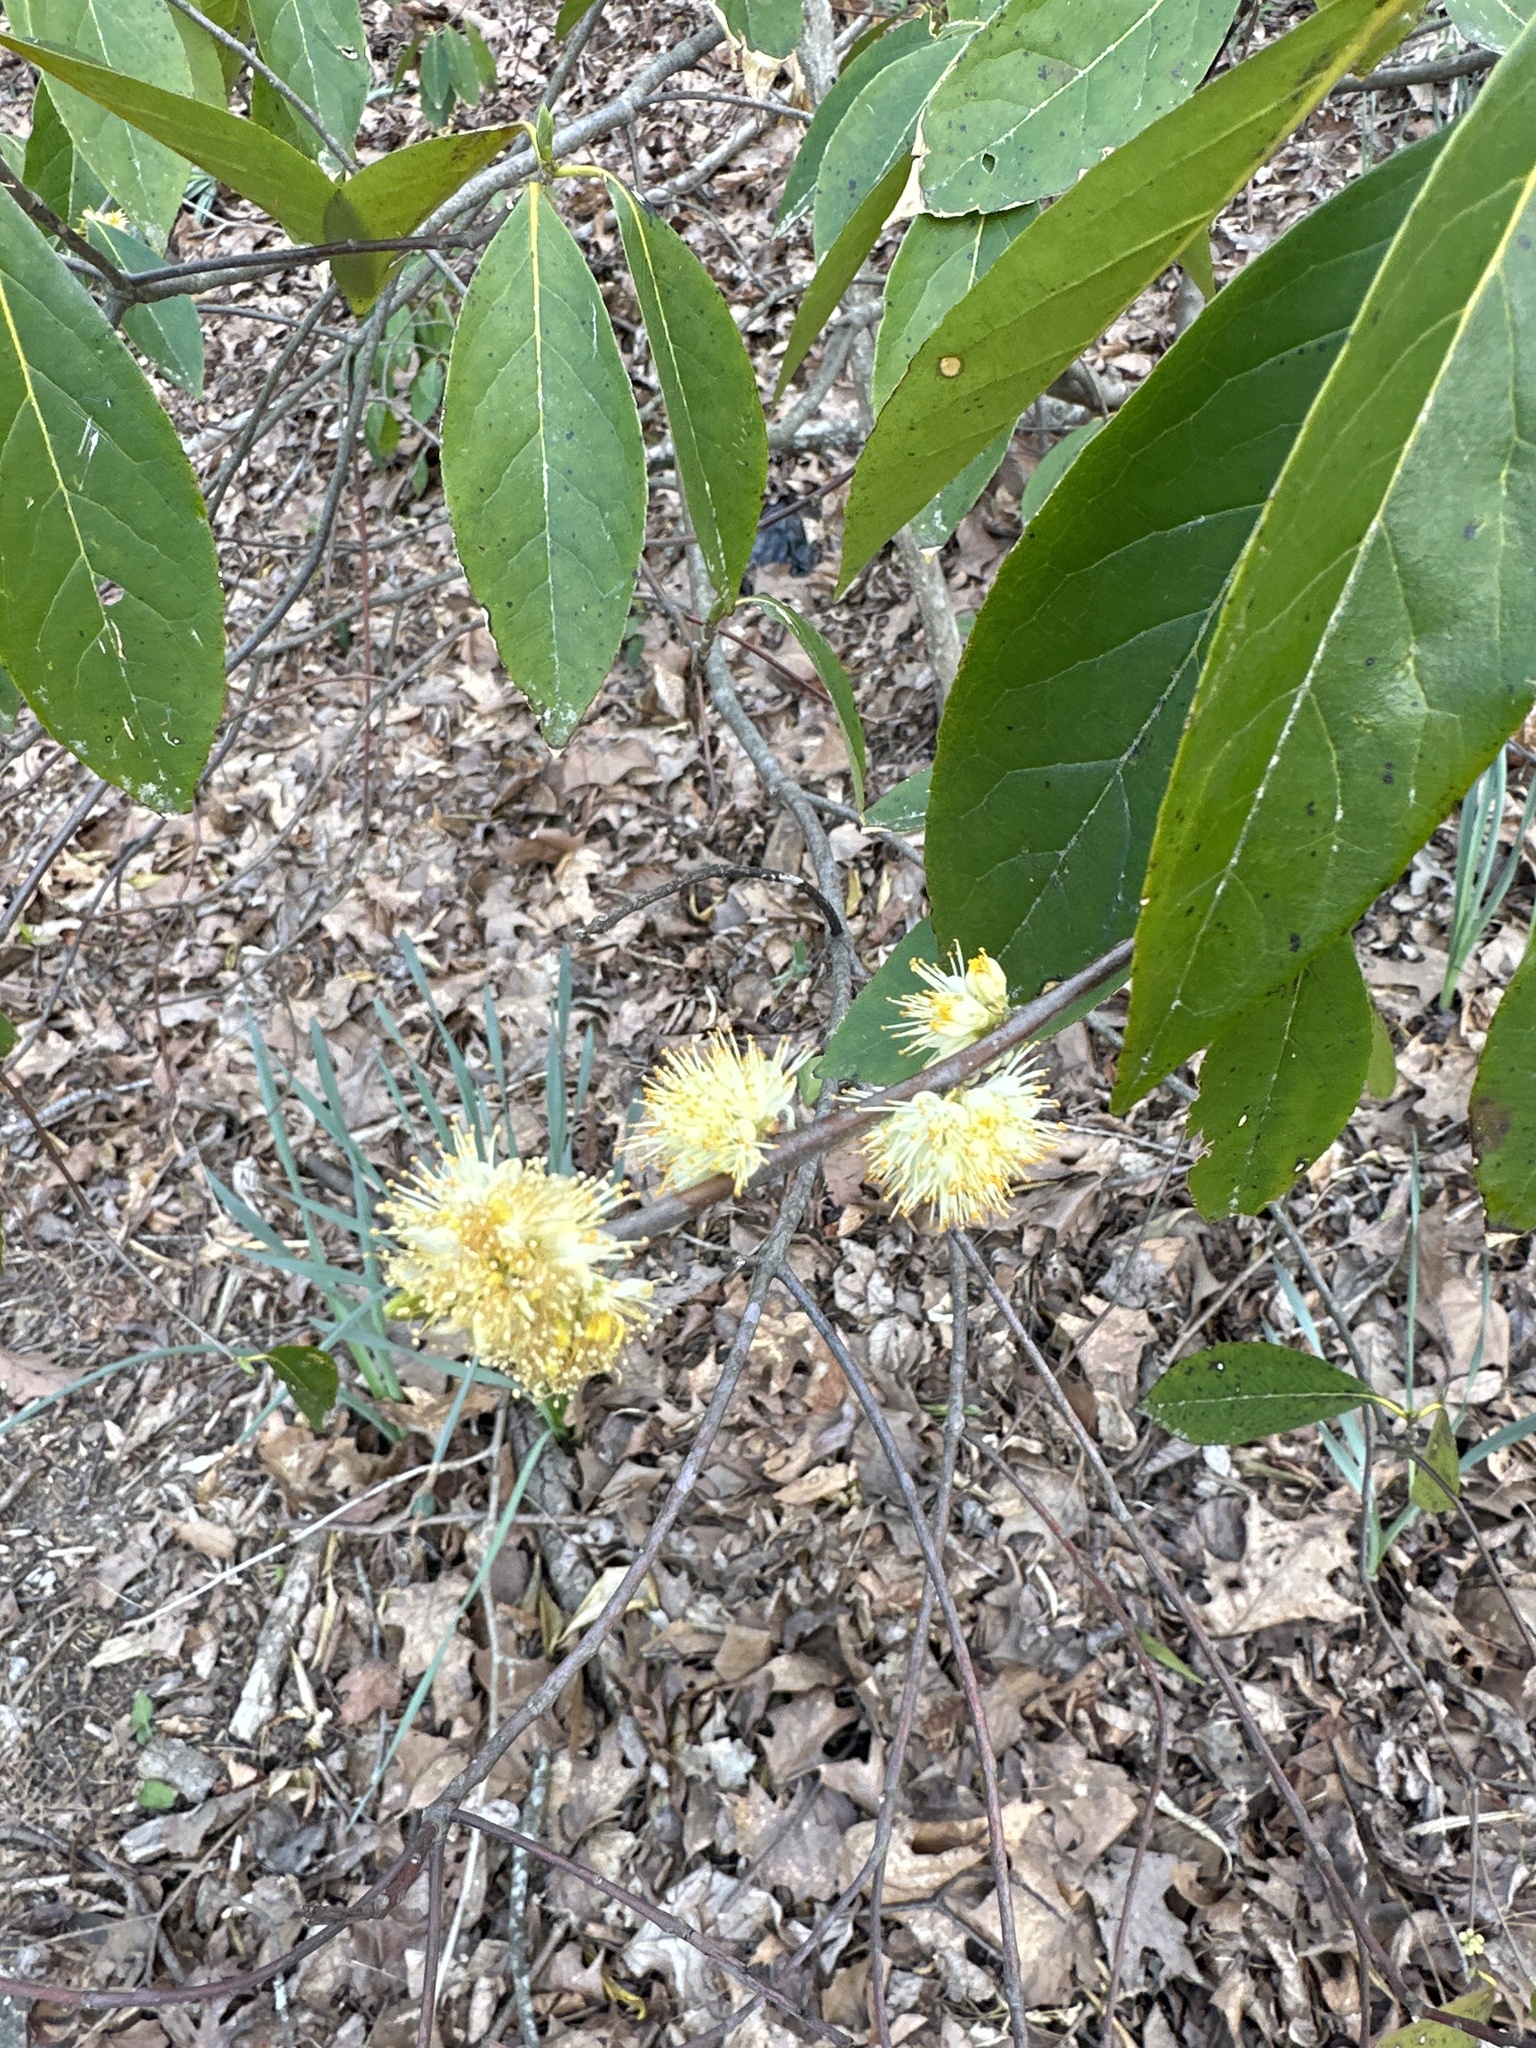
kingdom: Plantae
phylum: Tracheophyta
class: Magnoliopsida
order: Ericales
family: Symplocaceae
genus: Symplocos
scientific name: Symplocos tinctoria
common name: Horse-sugar
